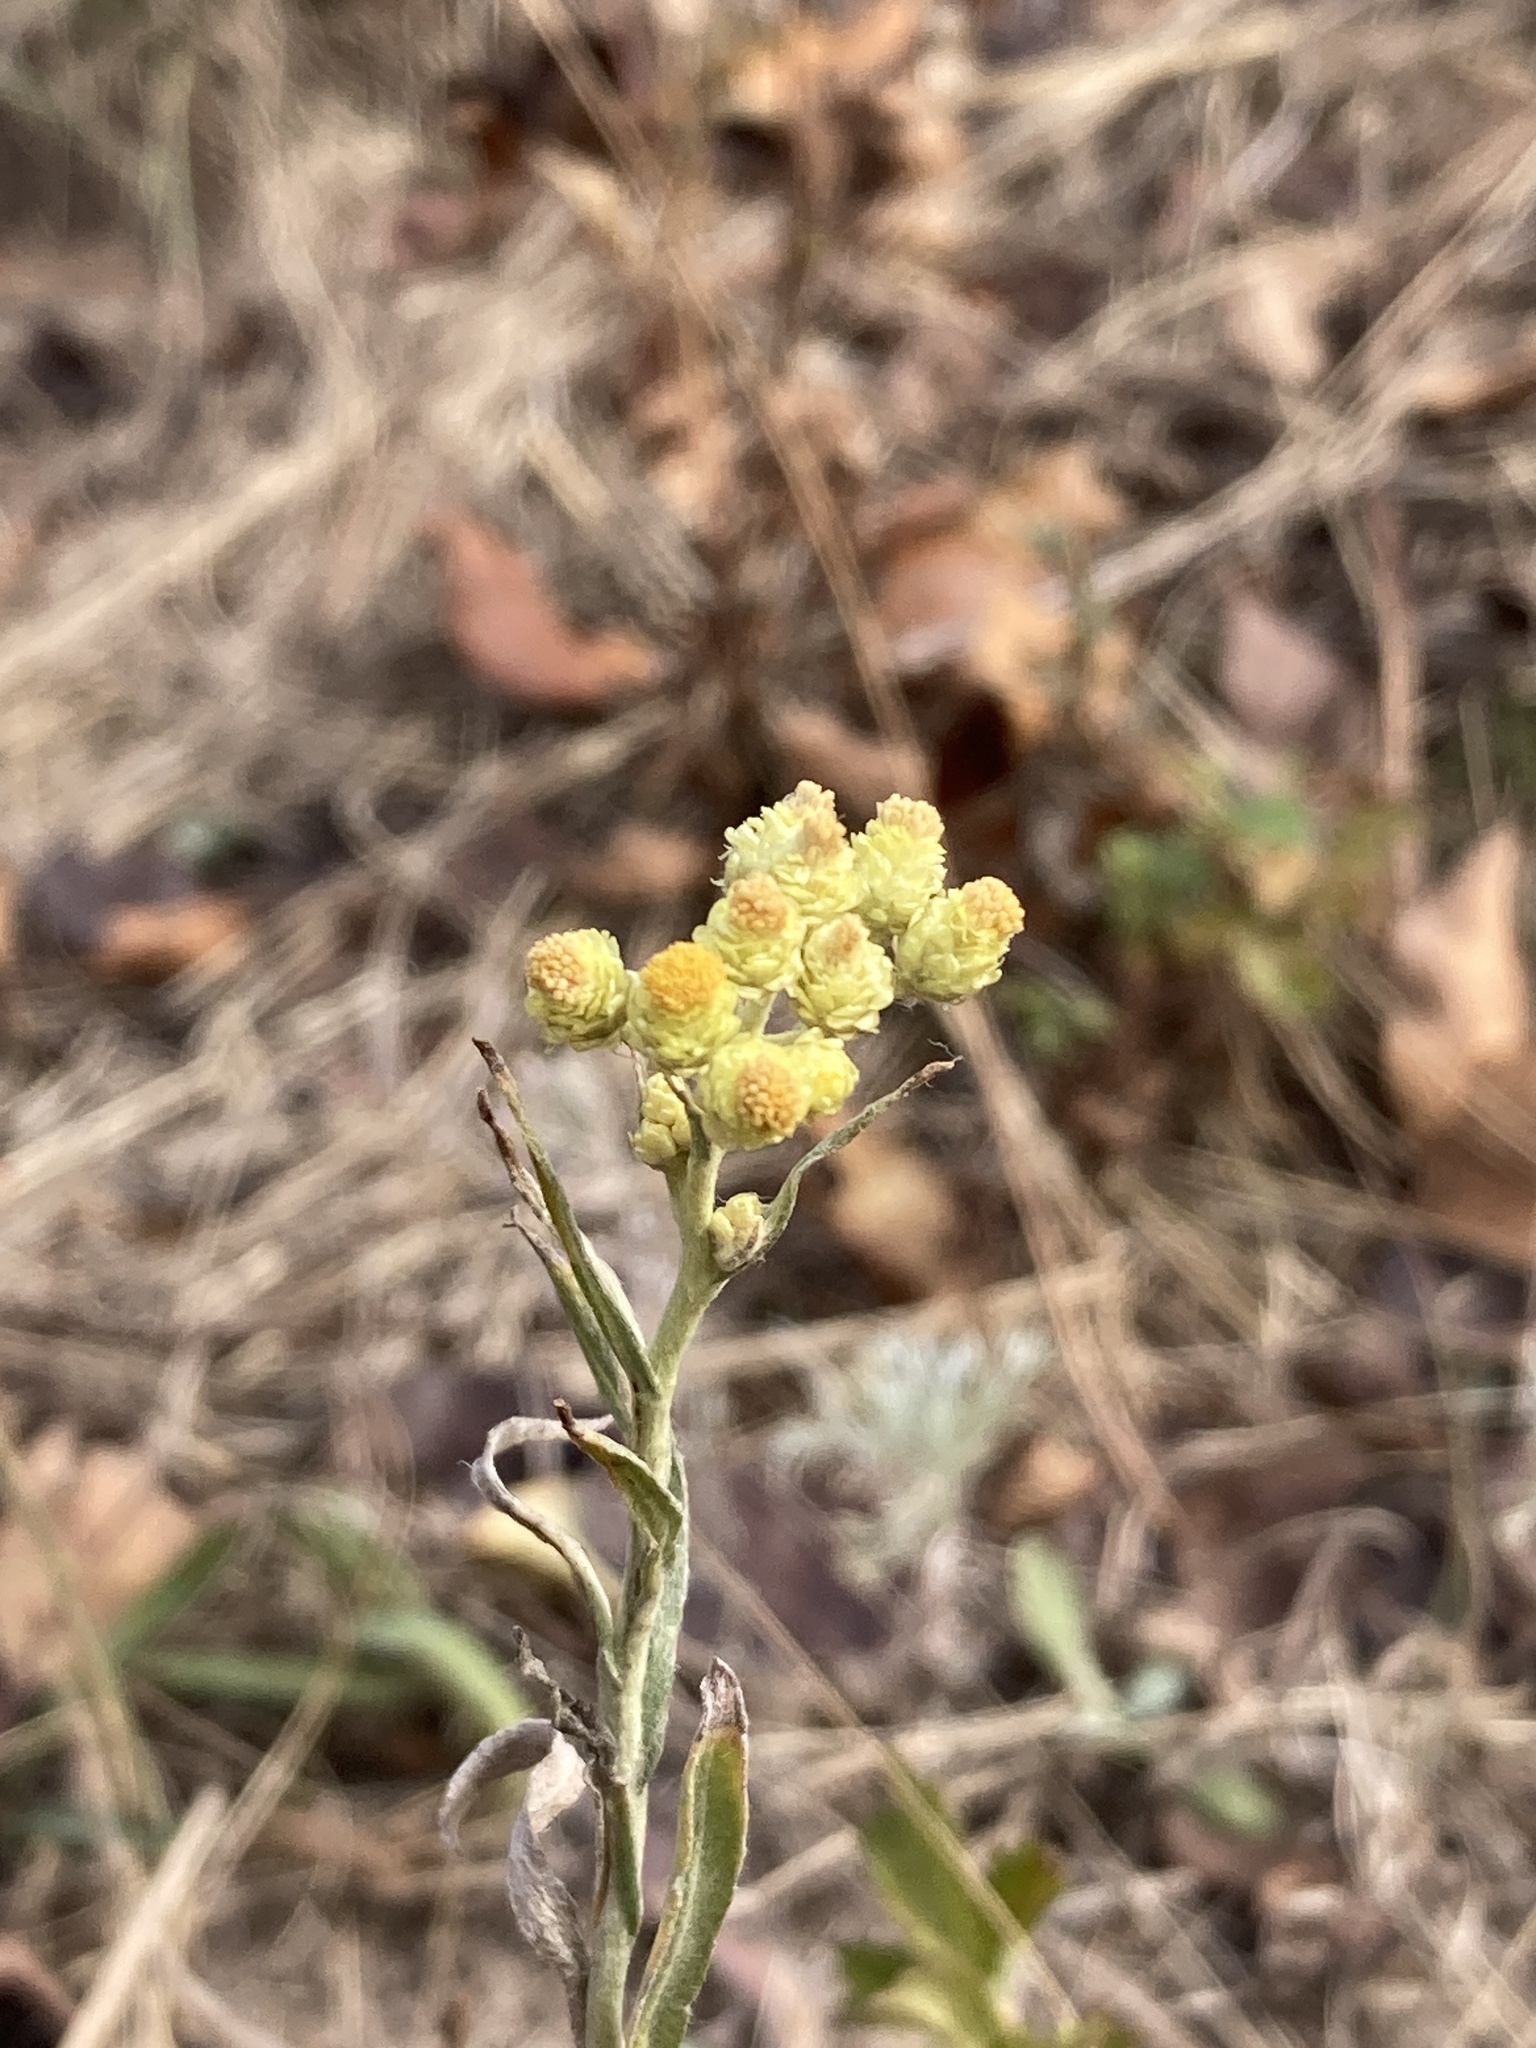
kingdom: Plantae
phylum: Tracheophyta
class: Magnoliopsida
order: Asterales
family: Asteraceae
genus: Helichrysum
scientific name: Helichrysum arenarium
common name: Strawflower
